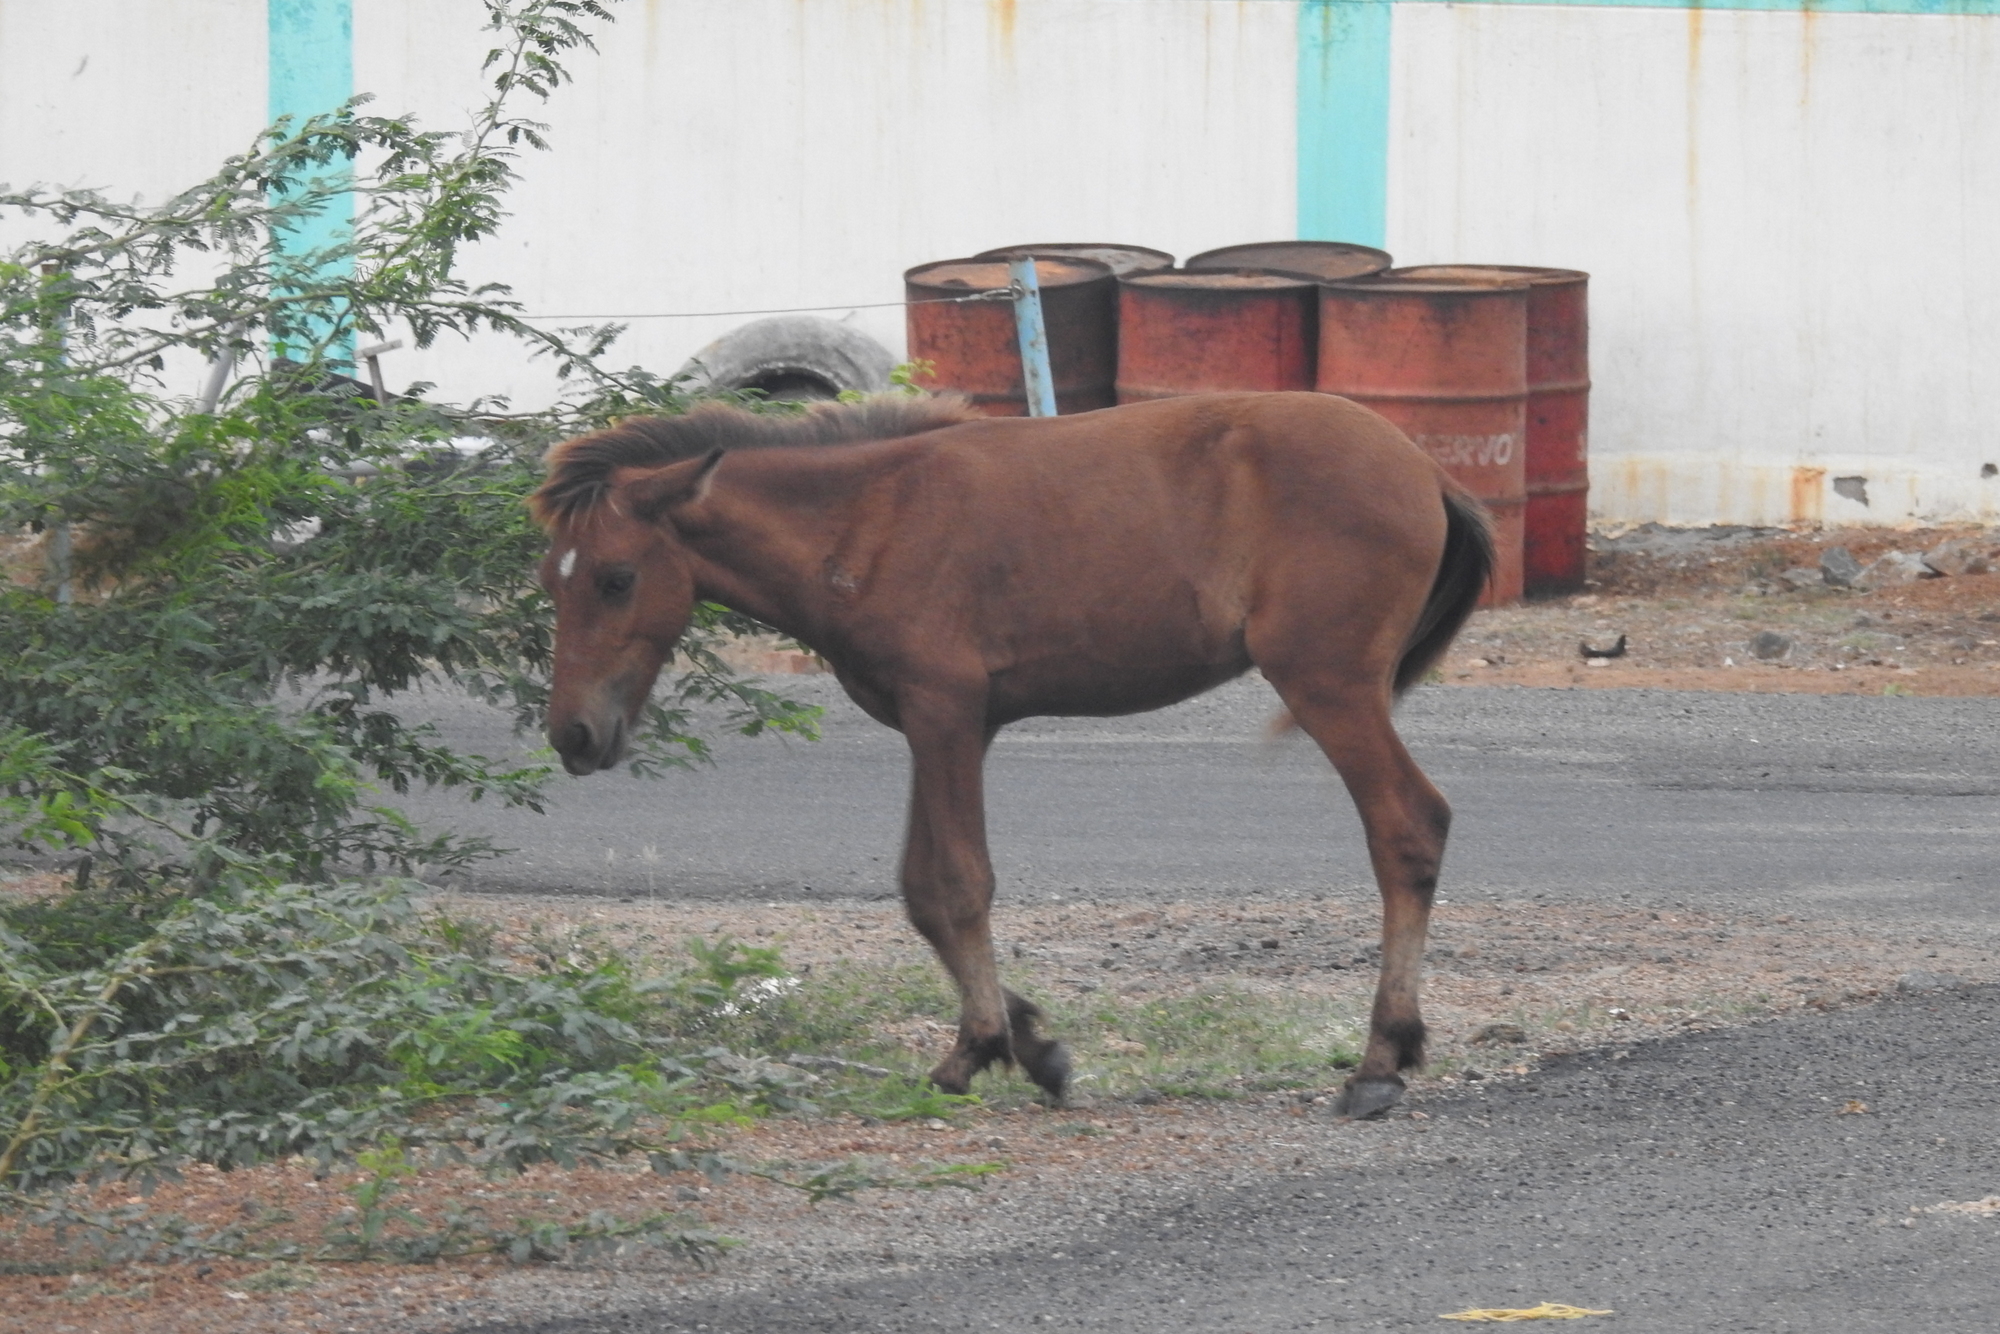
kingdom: Animalia
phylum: Chordata
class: Mammalia
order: Perissodactyla
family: Equidae
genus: Equus
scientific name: Equus caballus
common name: Horse
